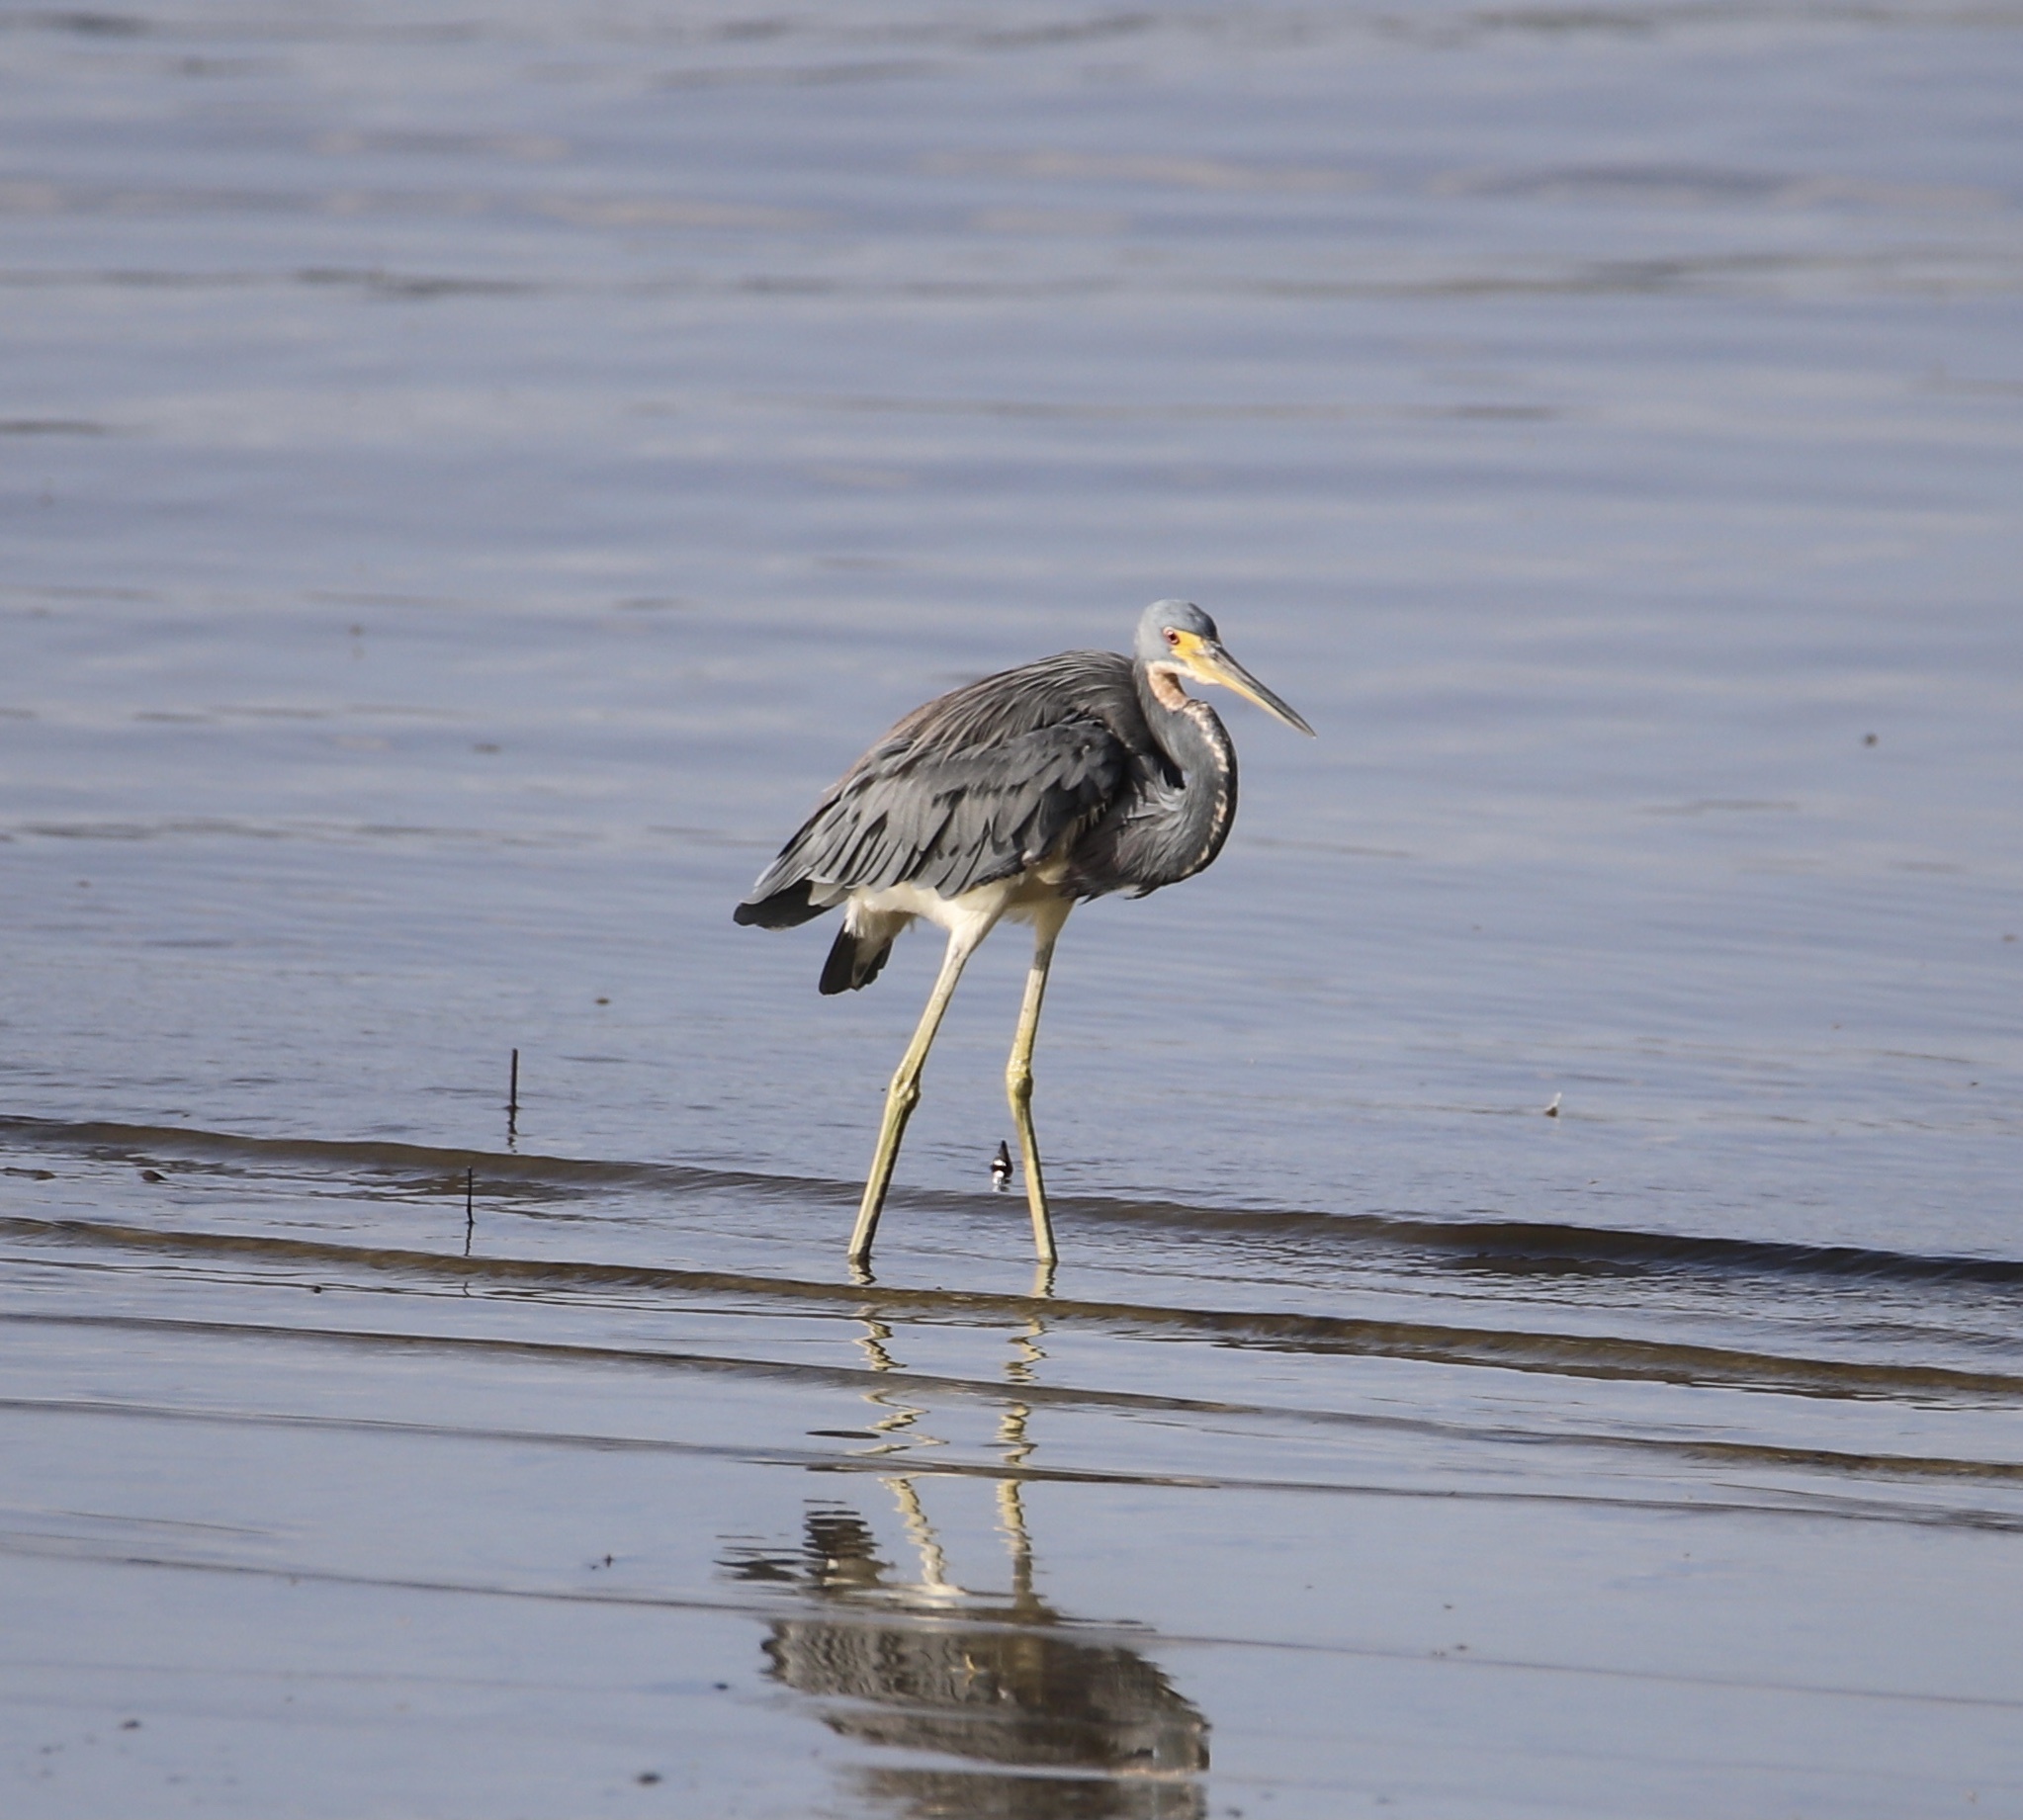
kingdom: Animalia
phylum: Chordata
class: Aves
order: Pelecaniformes
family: Ardeidae
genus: Egretta
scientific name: Egretta tricolor
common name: Tricolored heron
